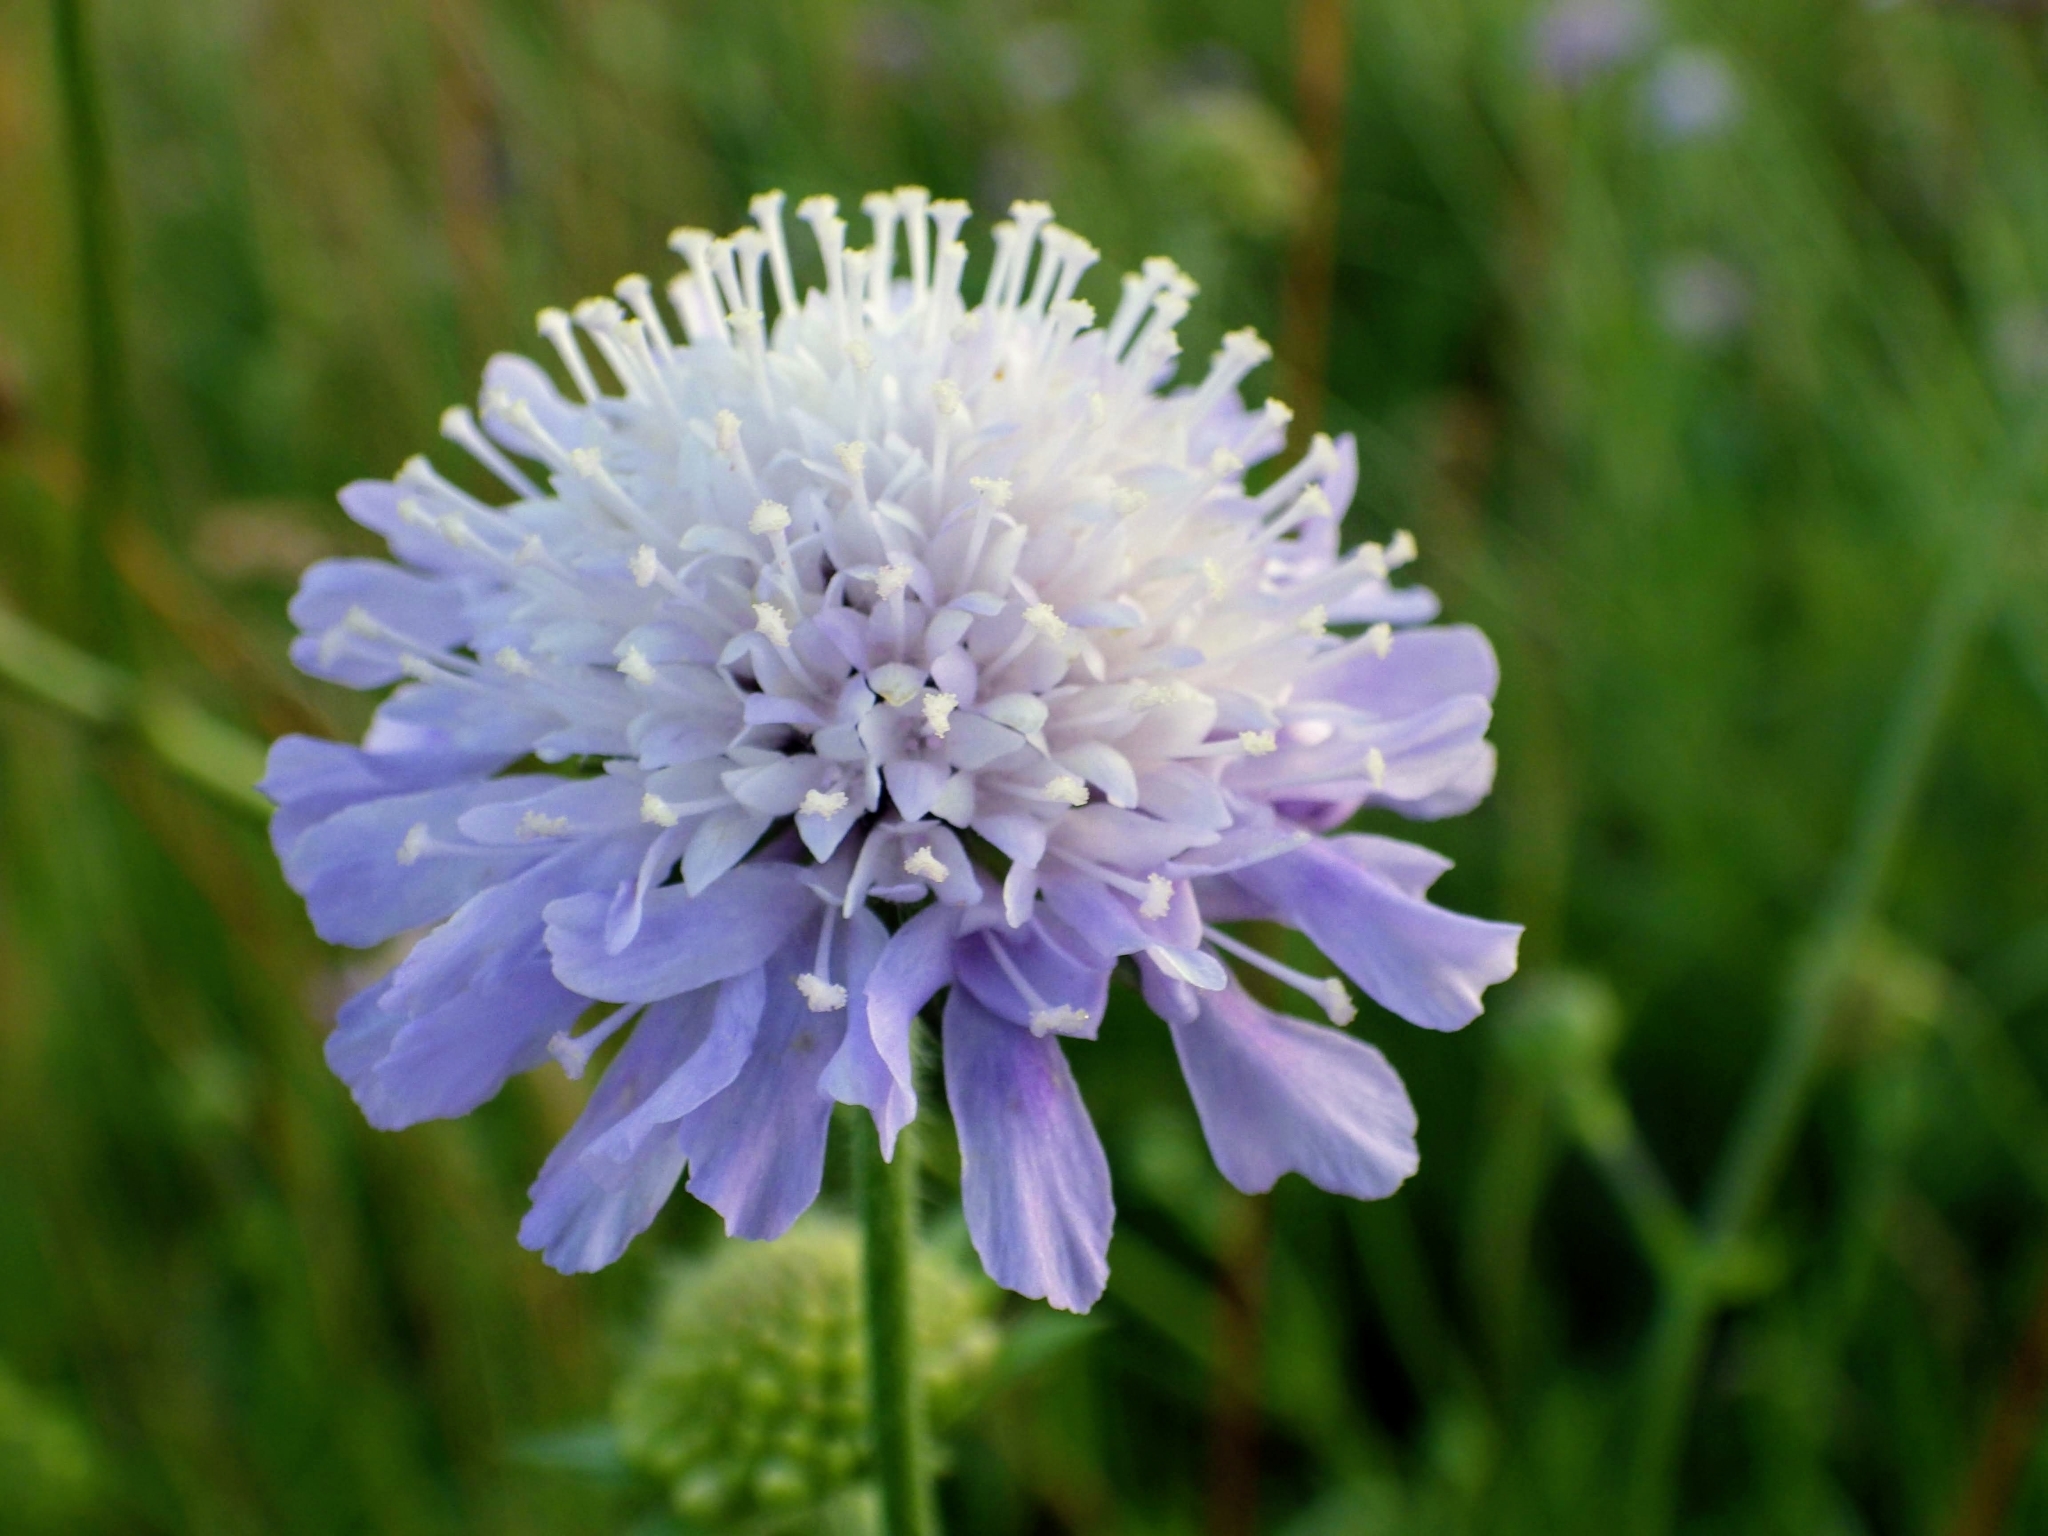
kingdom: Plantae
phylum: Tracheophyta
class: Magnoliopsida
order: Dipsacales
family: Caprifoliaceae
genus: Knautia
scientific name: Knautia arvensis
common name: Field scabiosa
